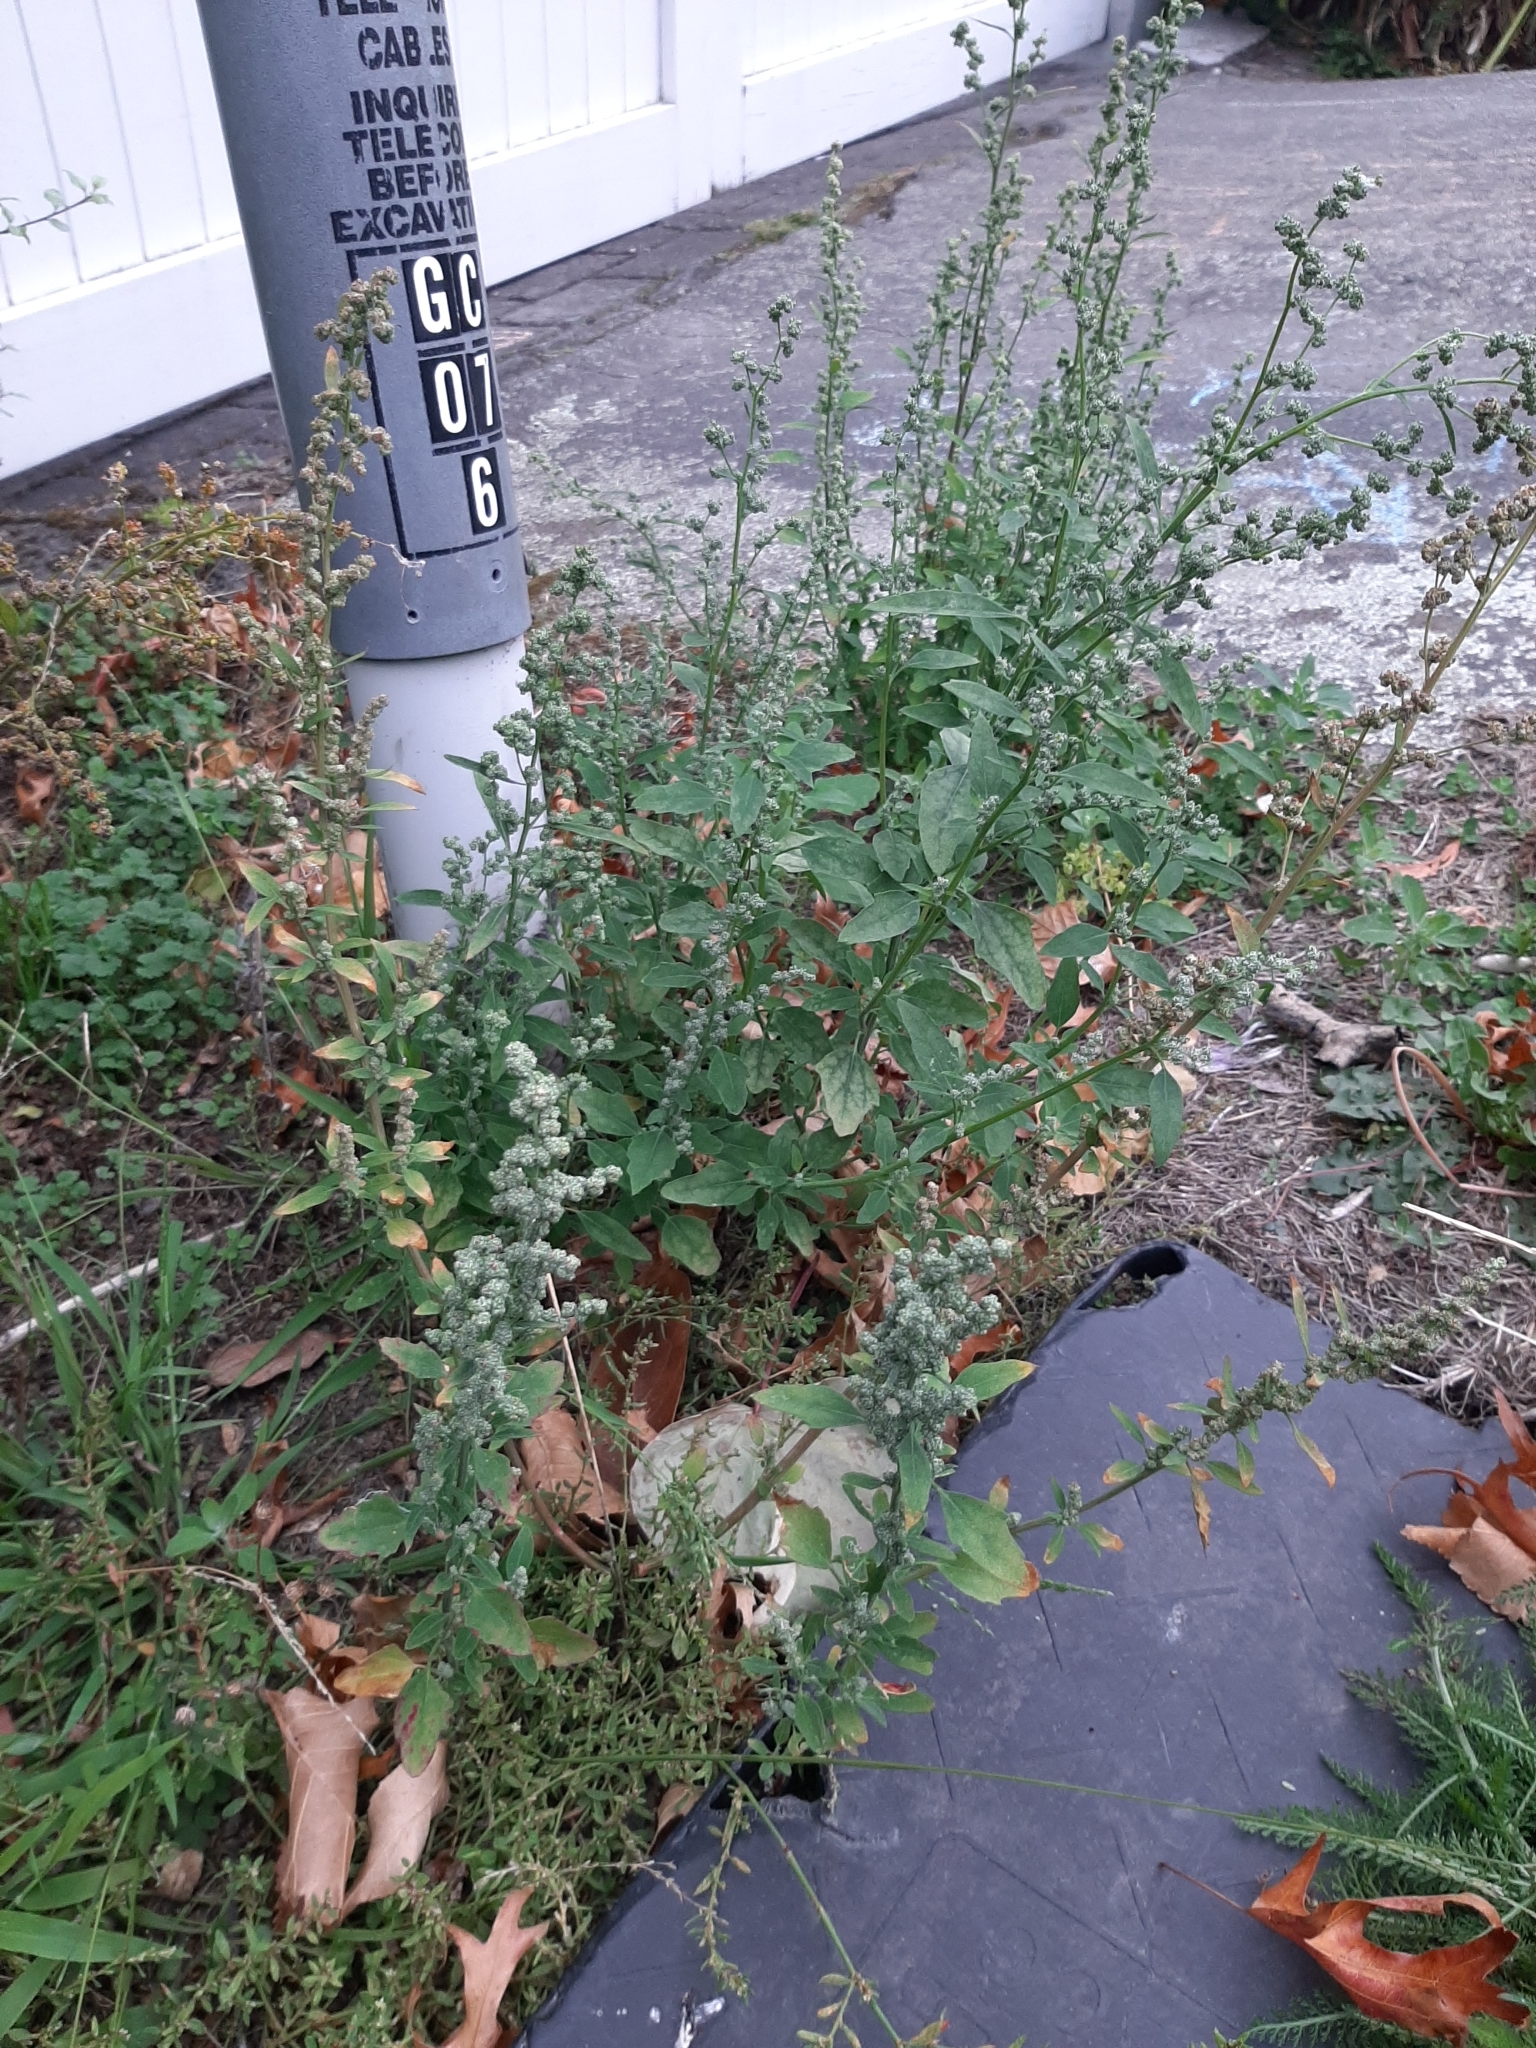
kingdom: Plantae
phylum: Tracheophyta
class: Magnoliopsida
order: Caryophyllales
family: Amaranthaceae
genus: Chenopodium
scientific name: Chenopodium album
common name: Fat-hen
